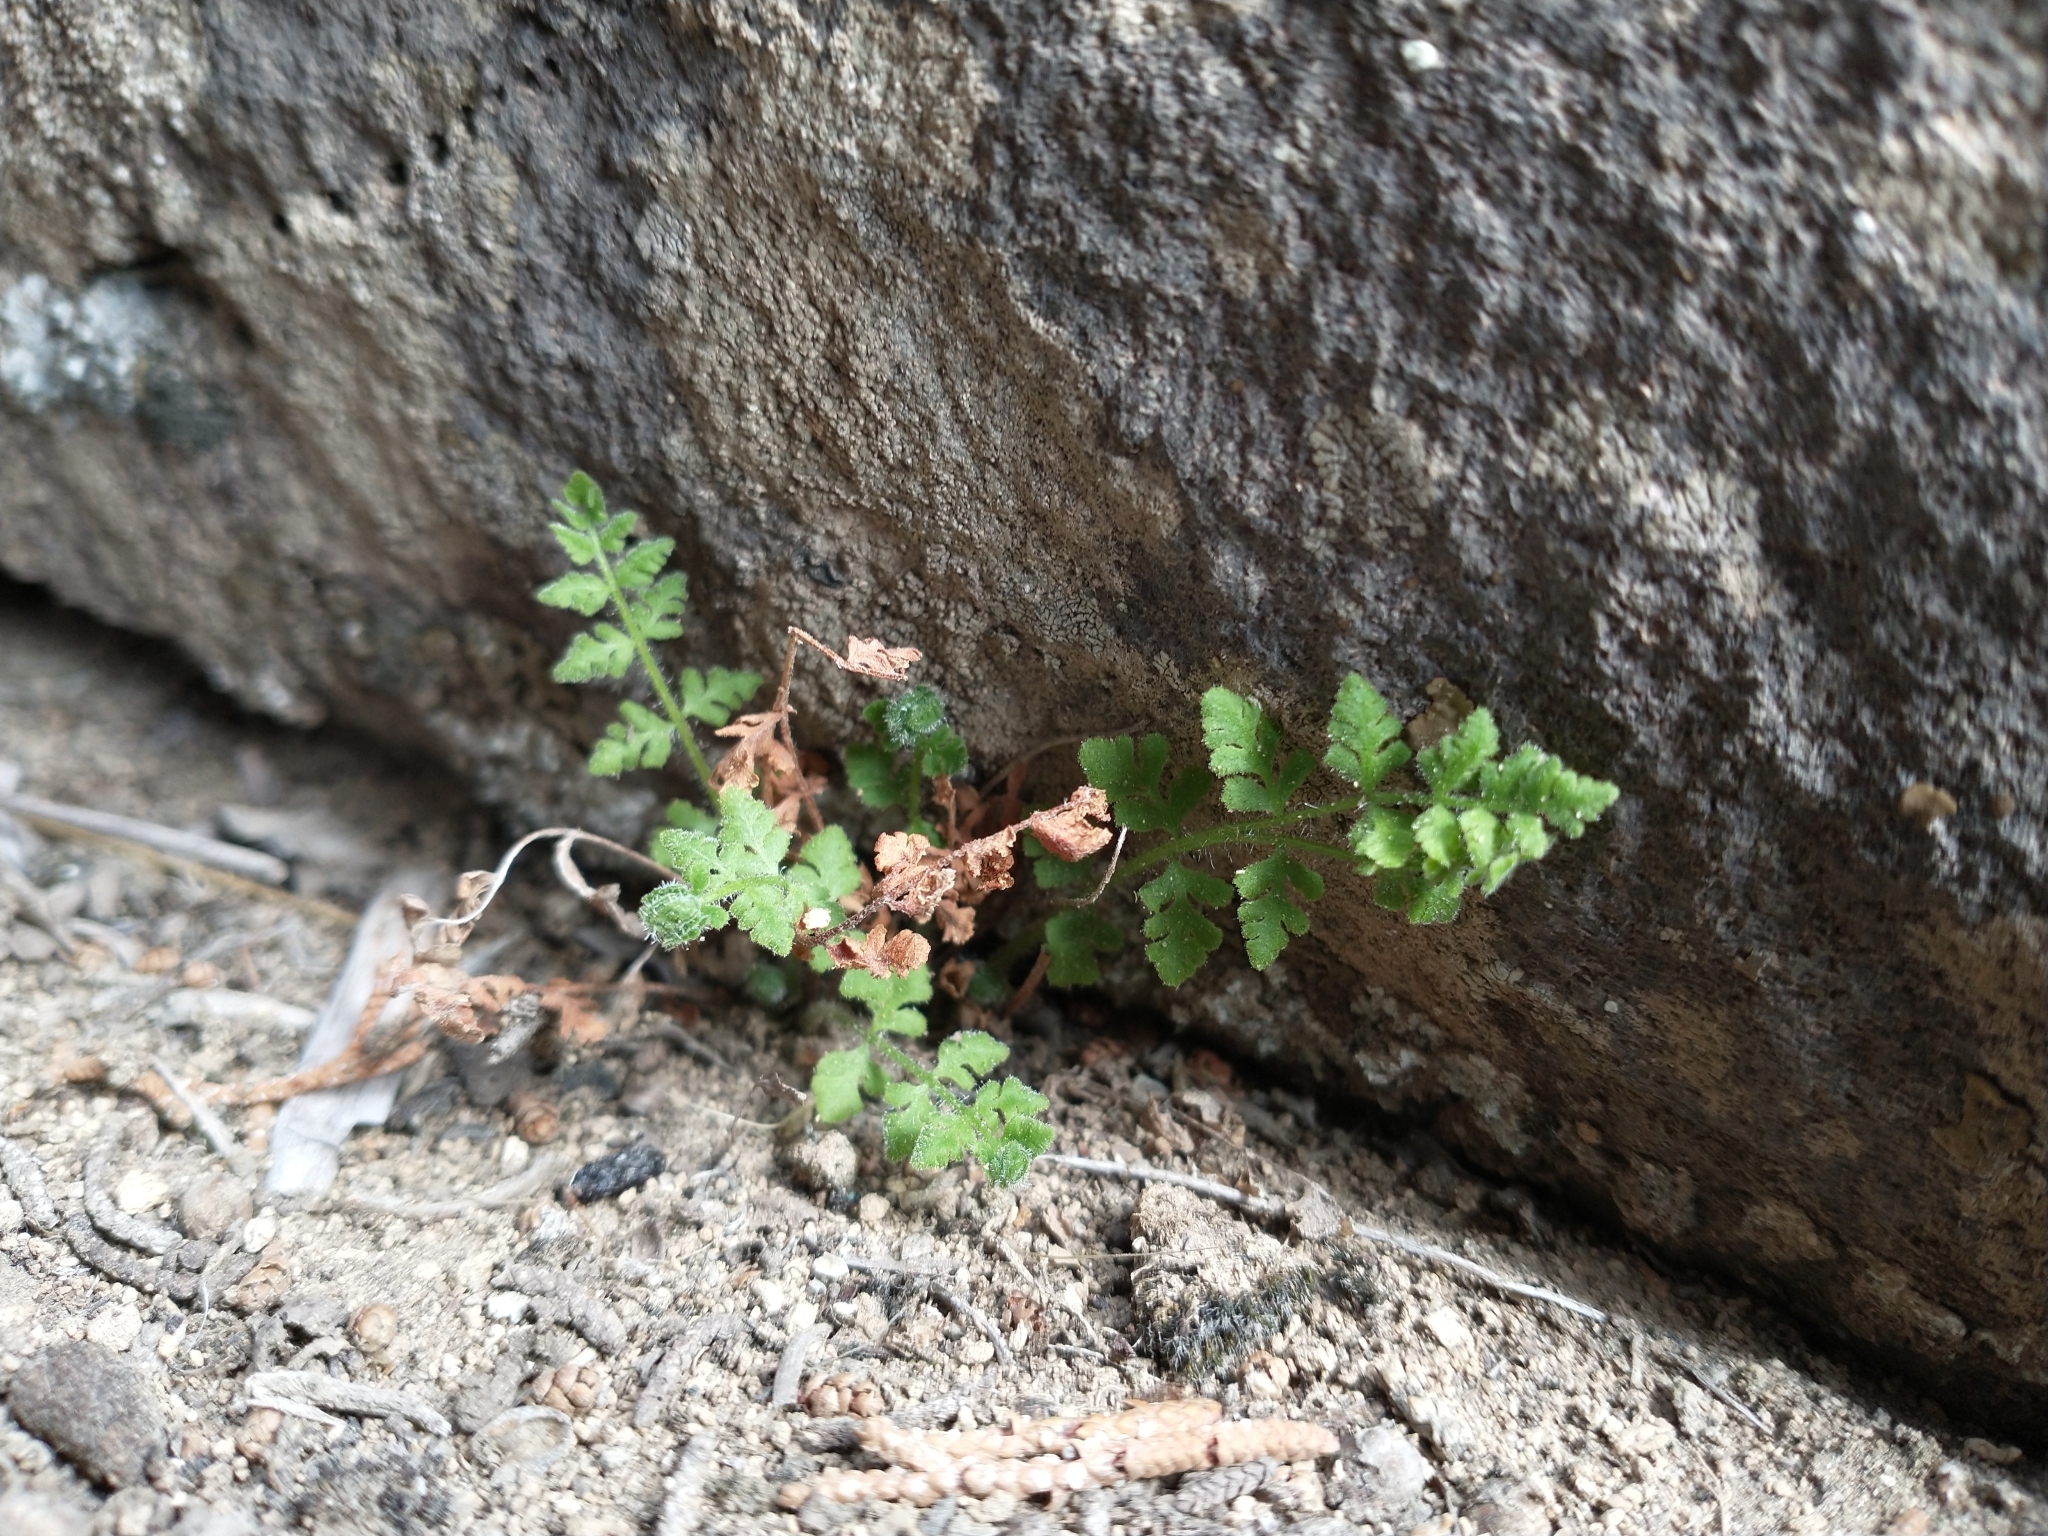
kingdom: Plantae
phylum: Tracheophyta
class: Polypodiopsida
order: Polypodiales
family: Woodsiaceae
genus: Physematium
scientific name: Physematium scopulinum
